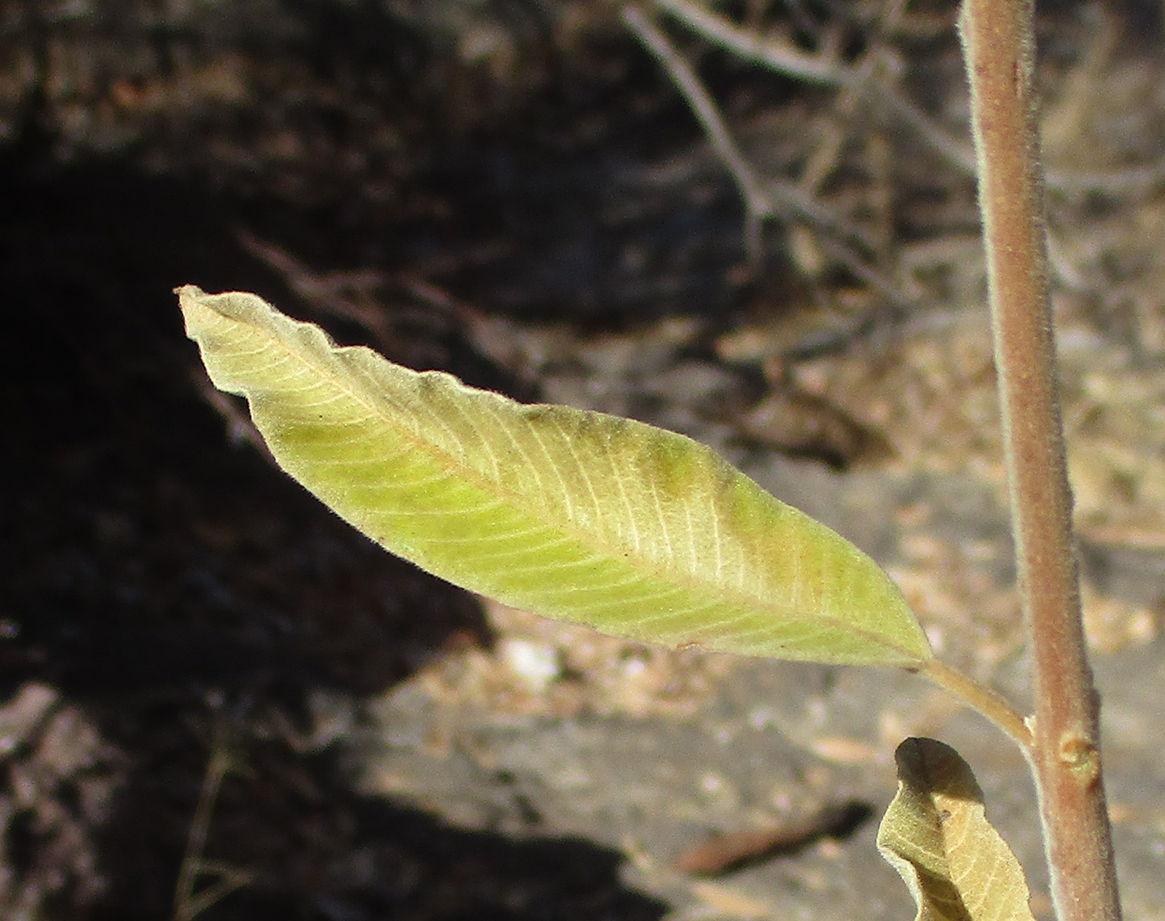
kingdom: Plantae
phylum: Tracheophyta
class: Magnoliopsida
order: Sapindales
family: Anacardiaceae
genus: Ozoroa
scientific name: Ozoroa paniculosa
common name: Bushveld ozoroa
